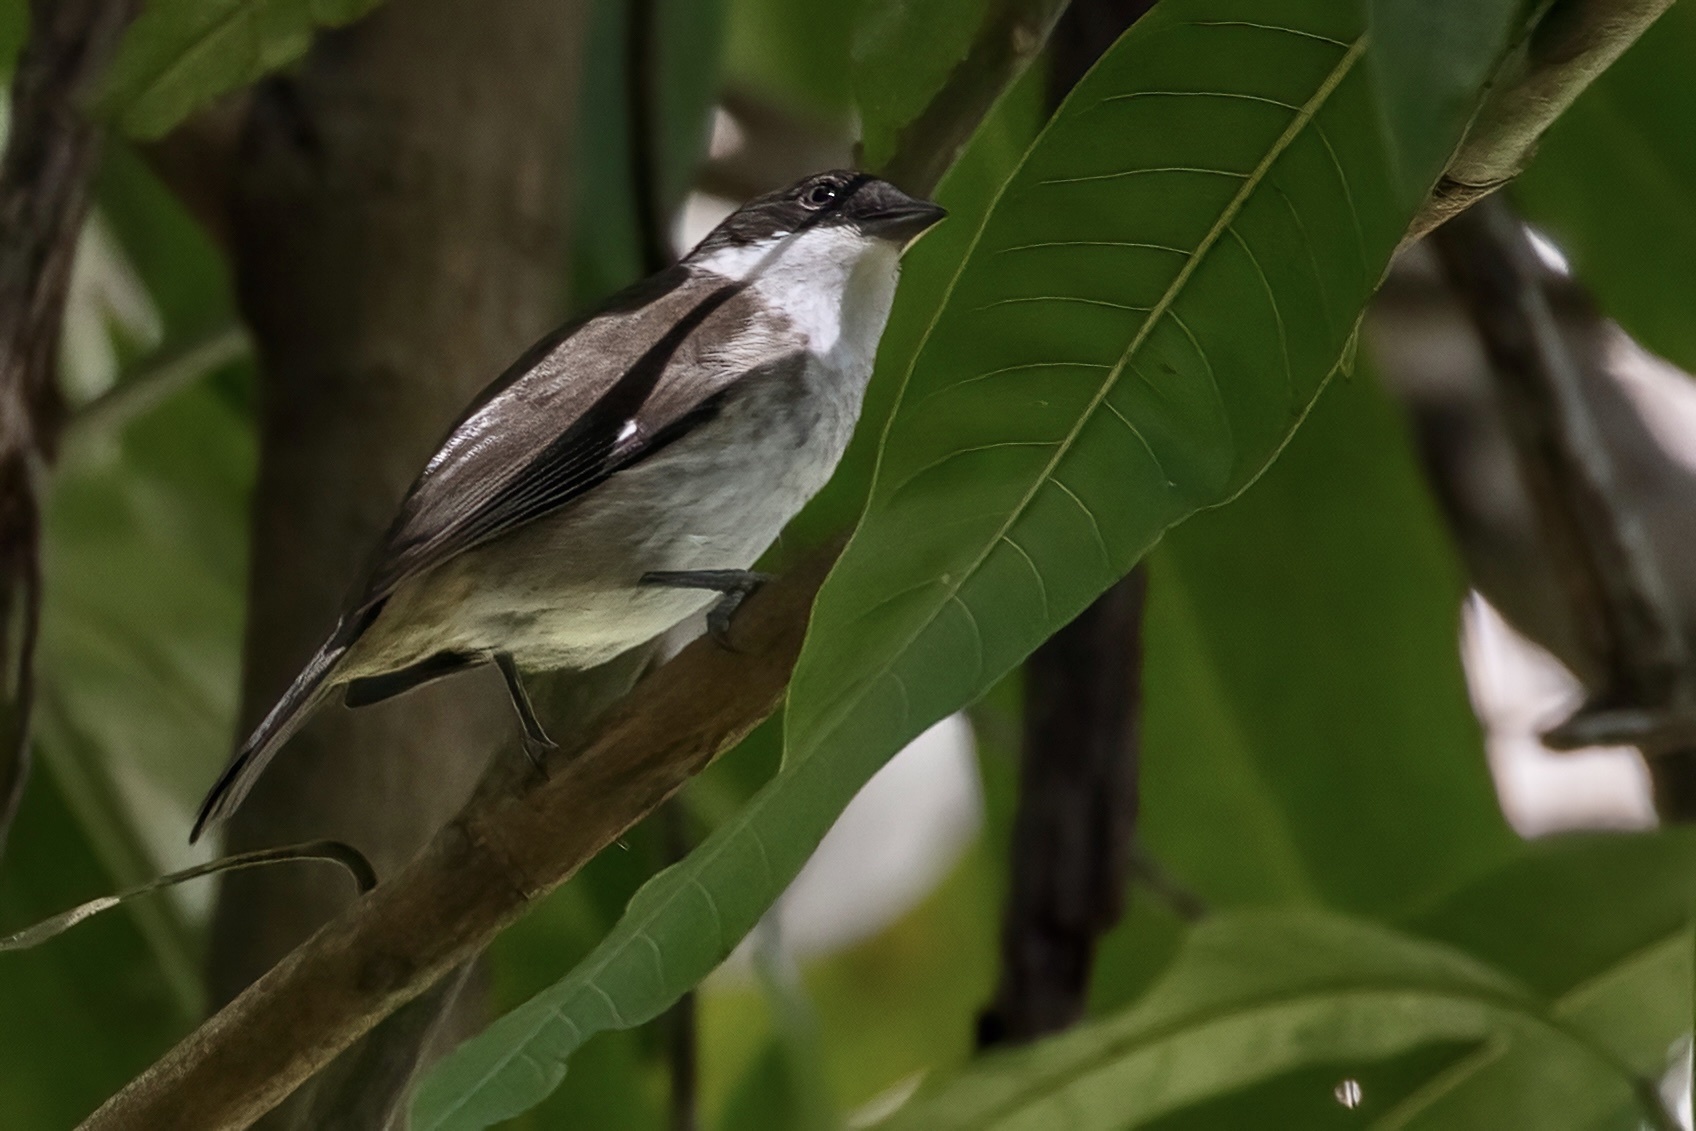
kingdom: Animalia
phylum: Chordata
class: Aves
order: Passeriformes
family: Nesospingidae
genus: Nesospingus
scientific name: Nesospingus speculiferus
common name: Puerto rican tanager
